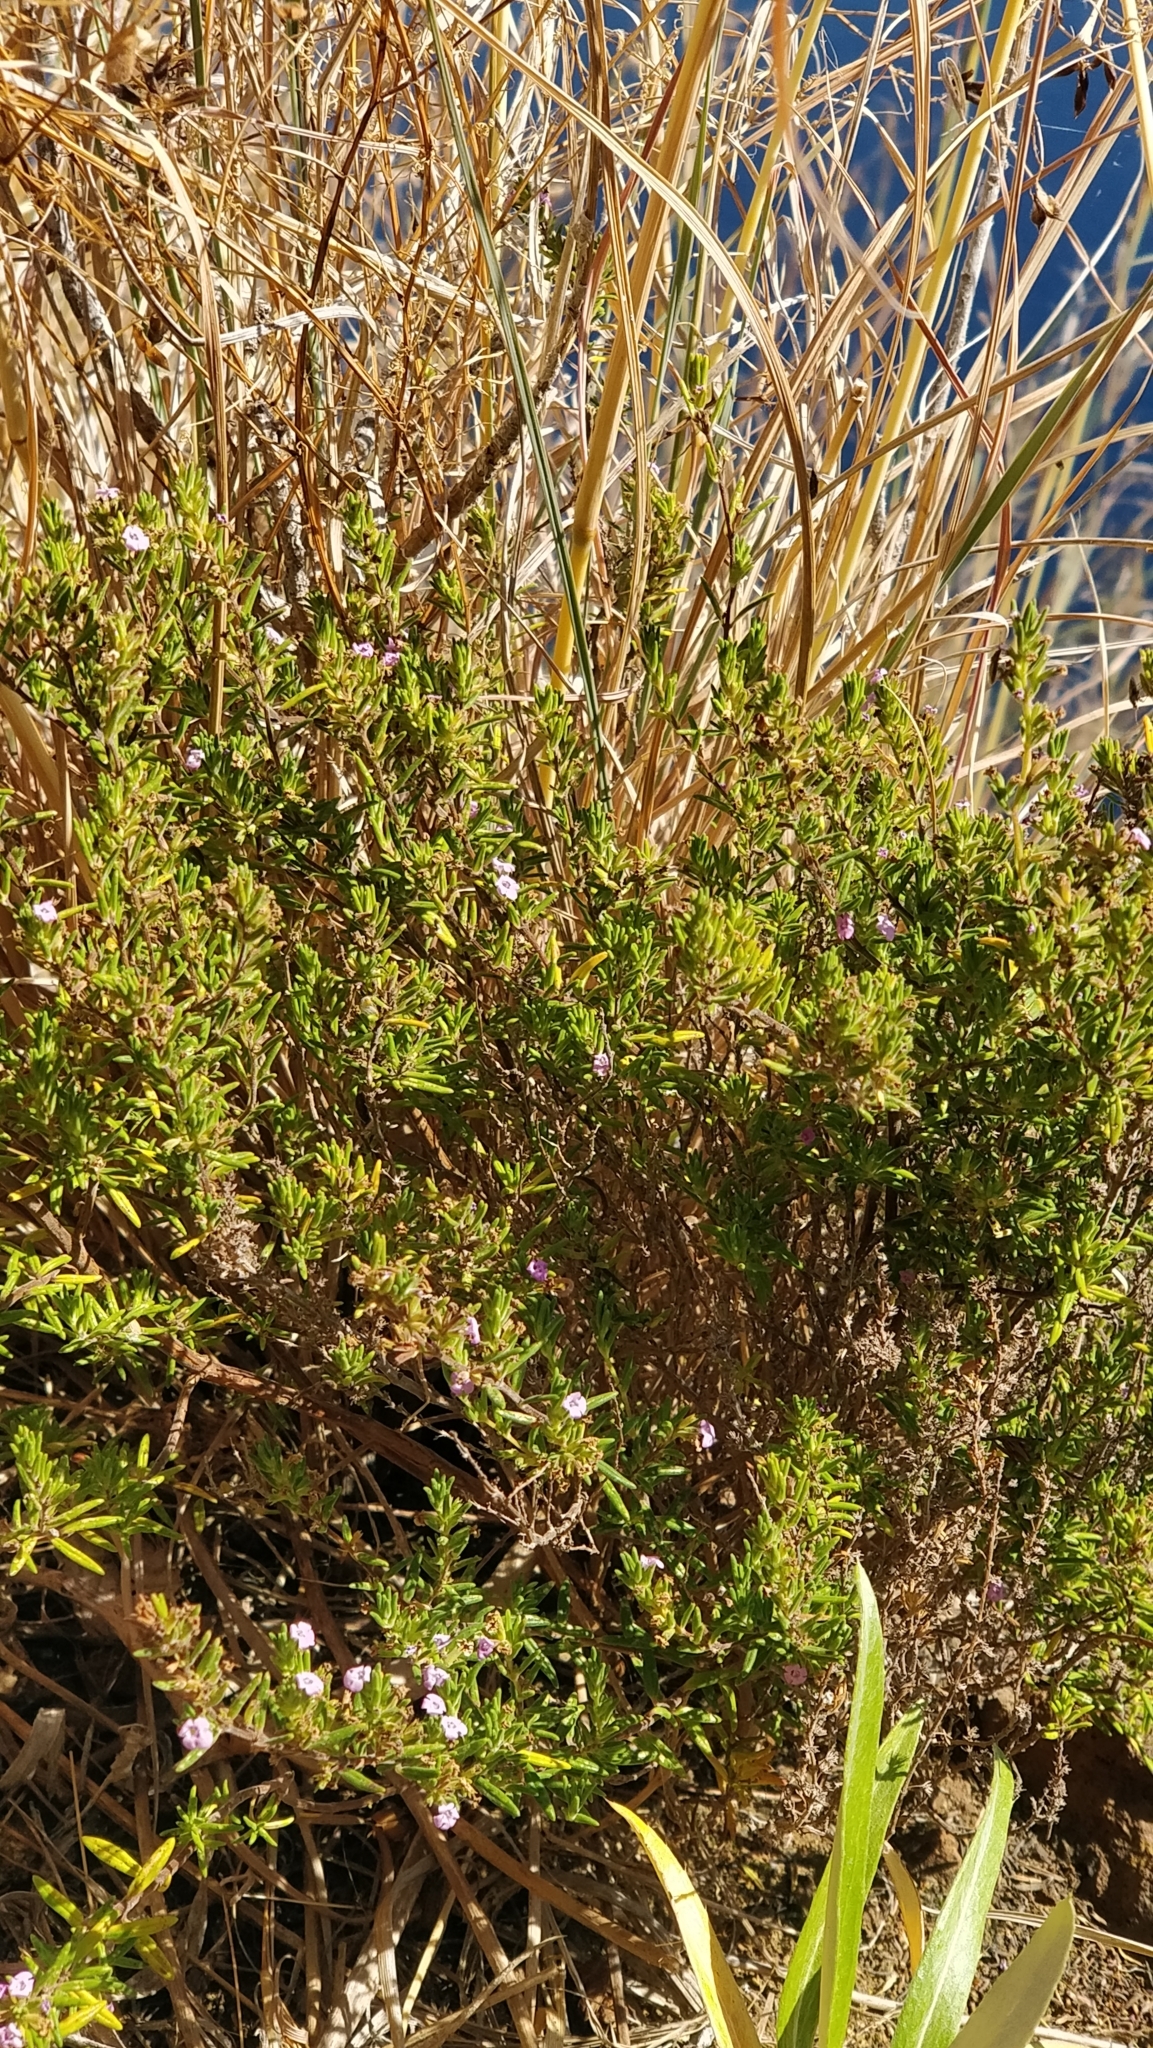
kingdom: Plantae
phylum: Tracheophyta
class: Magnoliopsida
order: Lamiales
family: Lamiaceae
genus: Micromeria
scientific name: Micromeria maderensis
